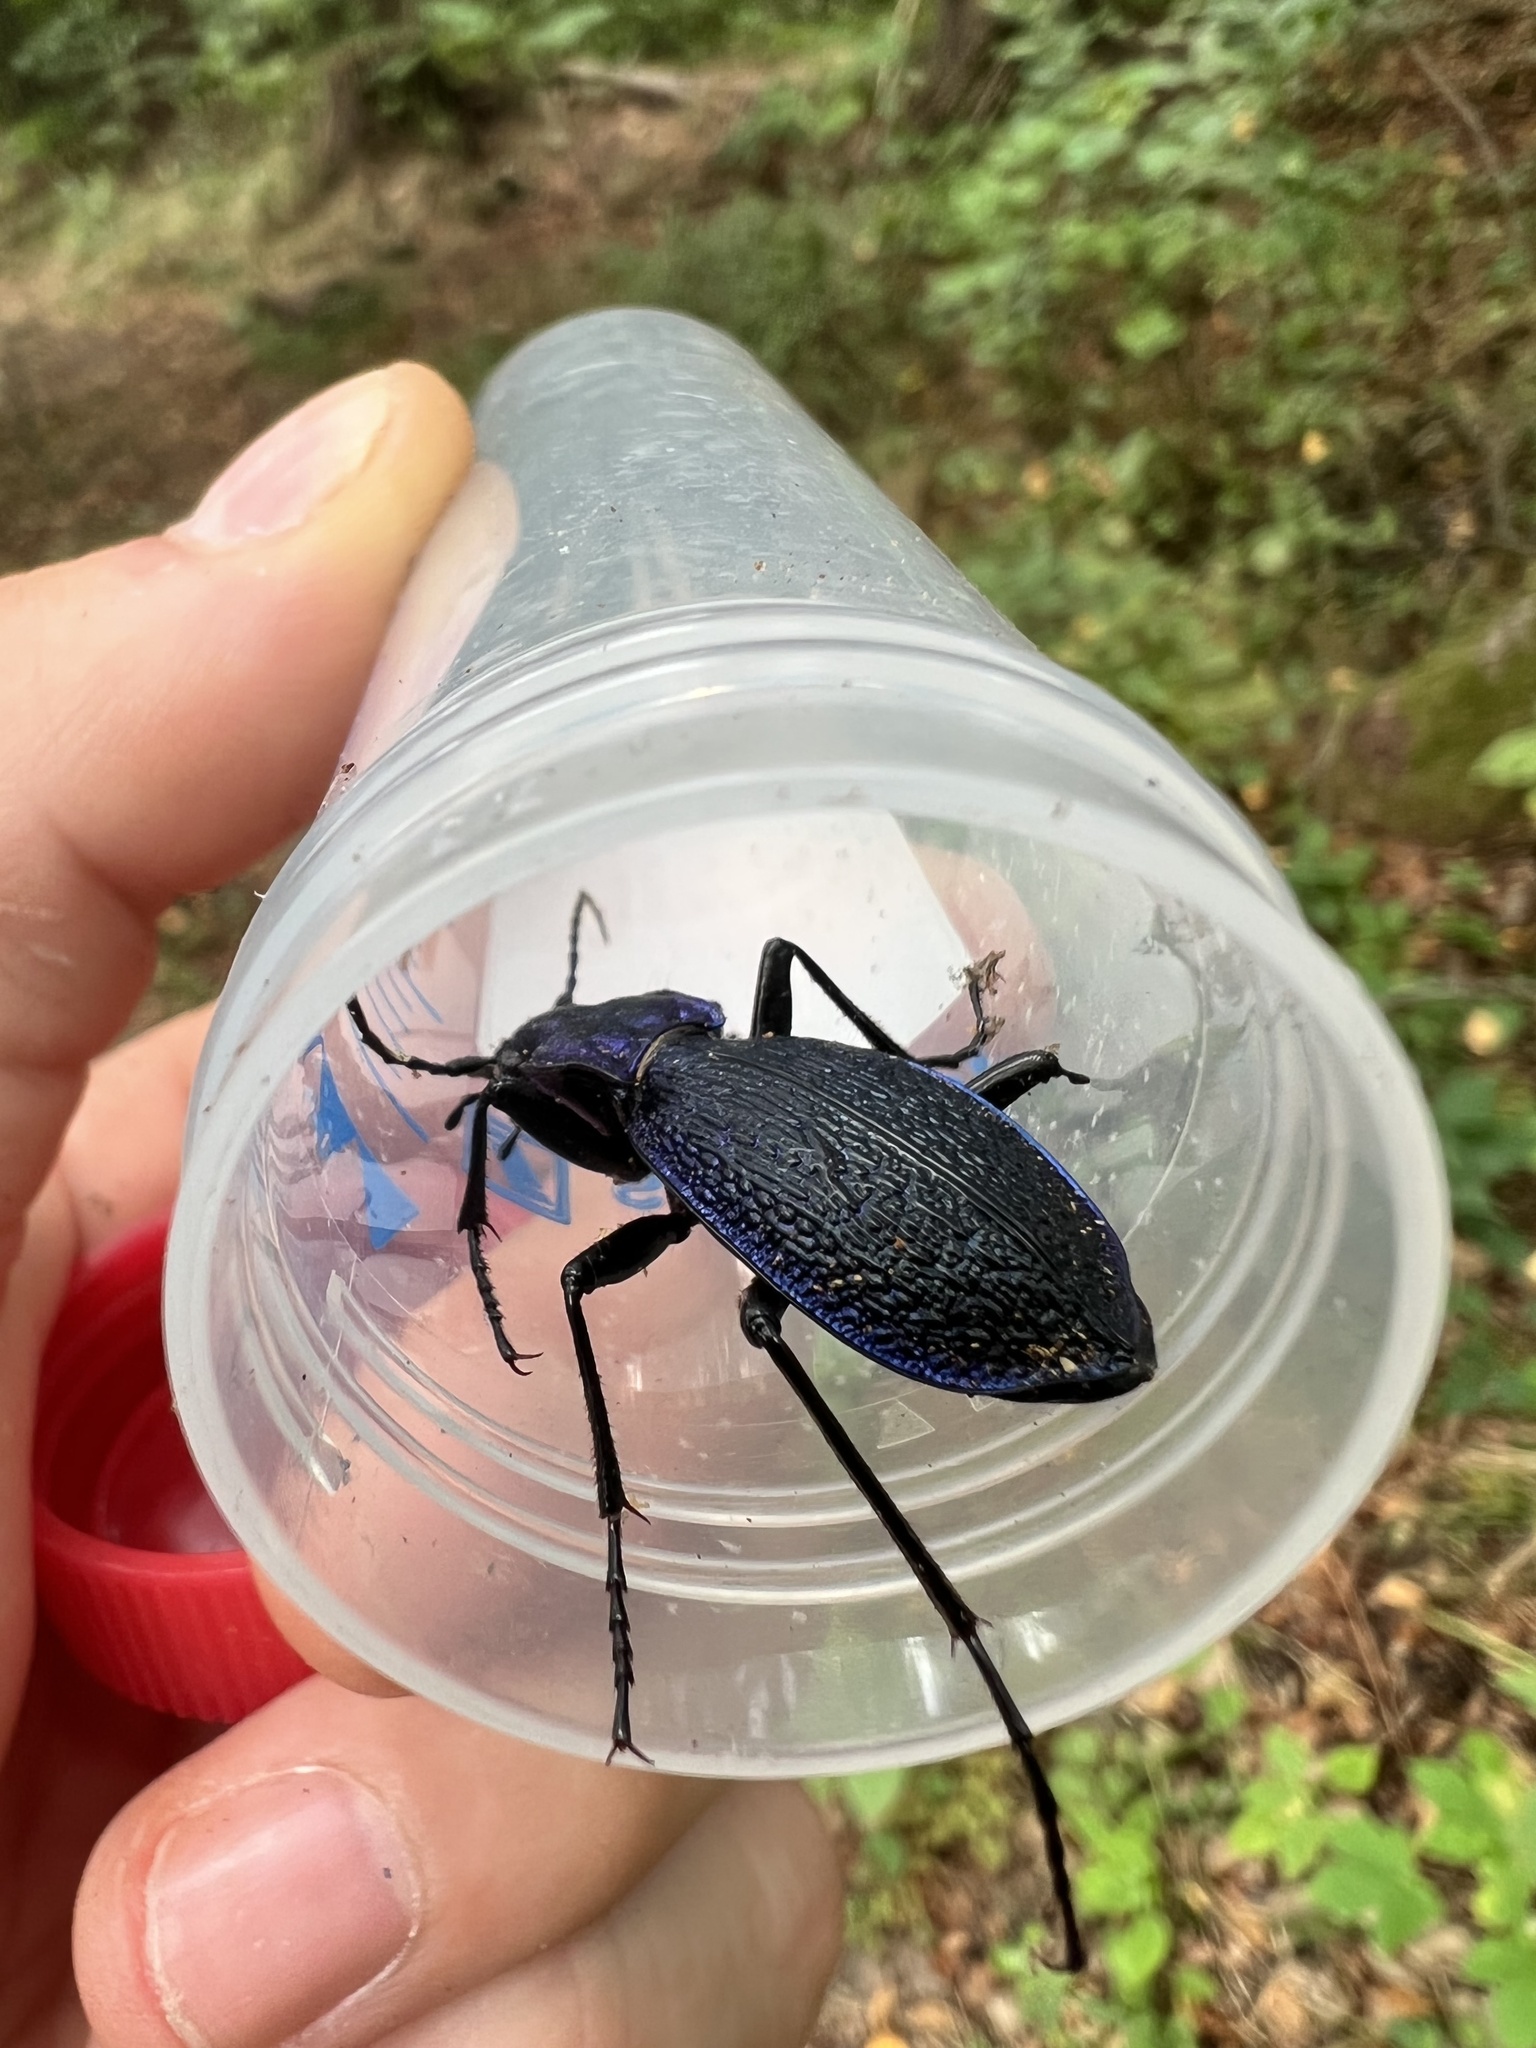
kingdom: Animalia
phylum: Arthropoda
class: Insecta
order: Coleoptera
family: Carabidae
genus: Carabus
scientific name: Carabus intricatus
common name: Blue ground beetle
